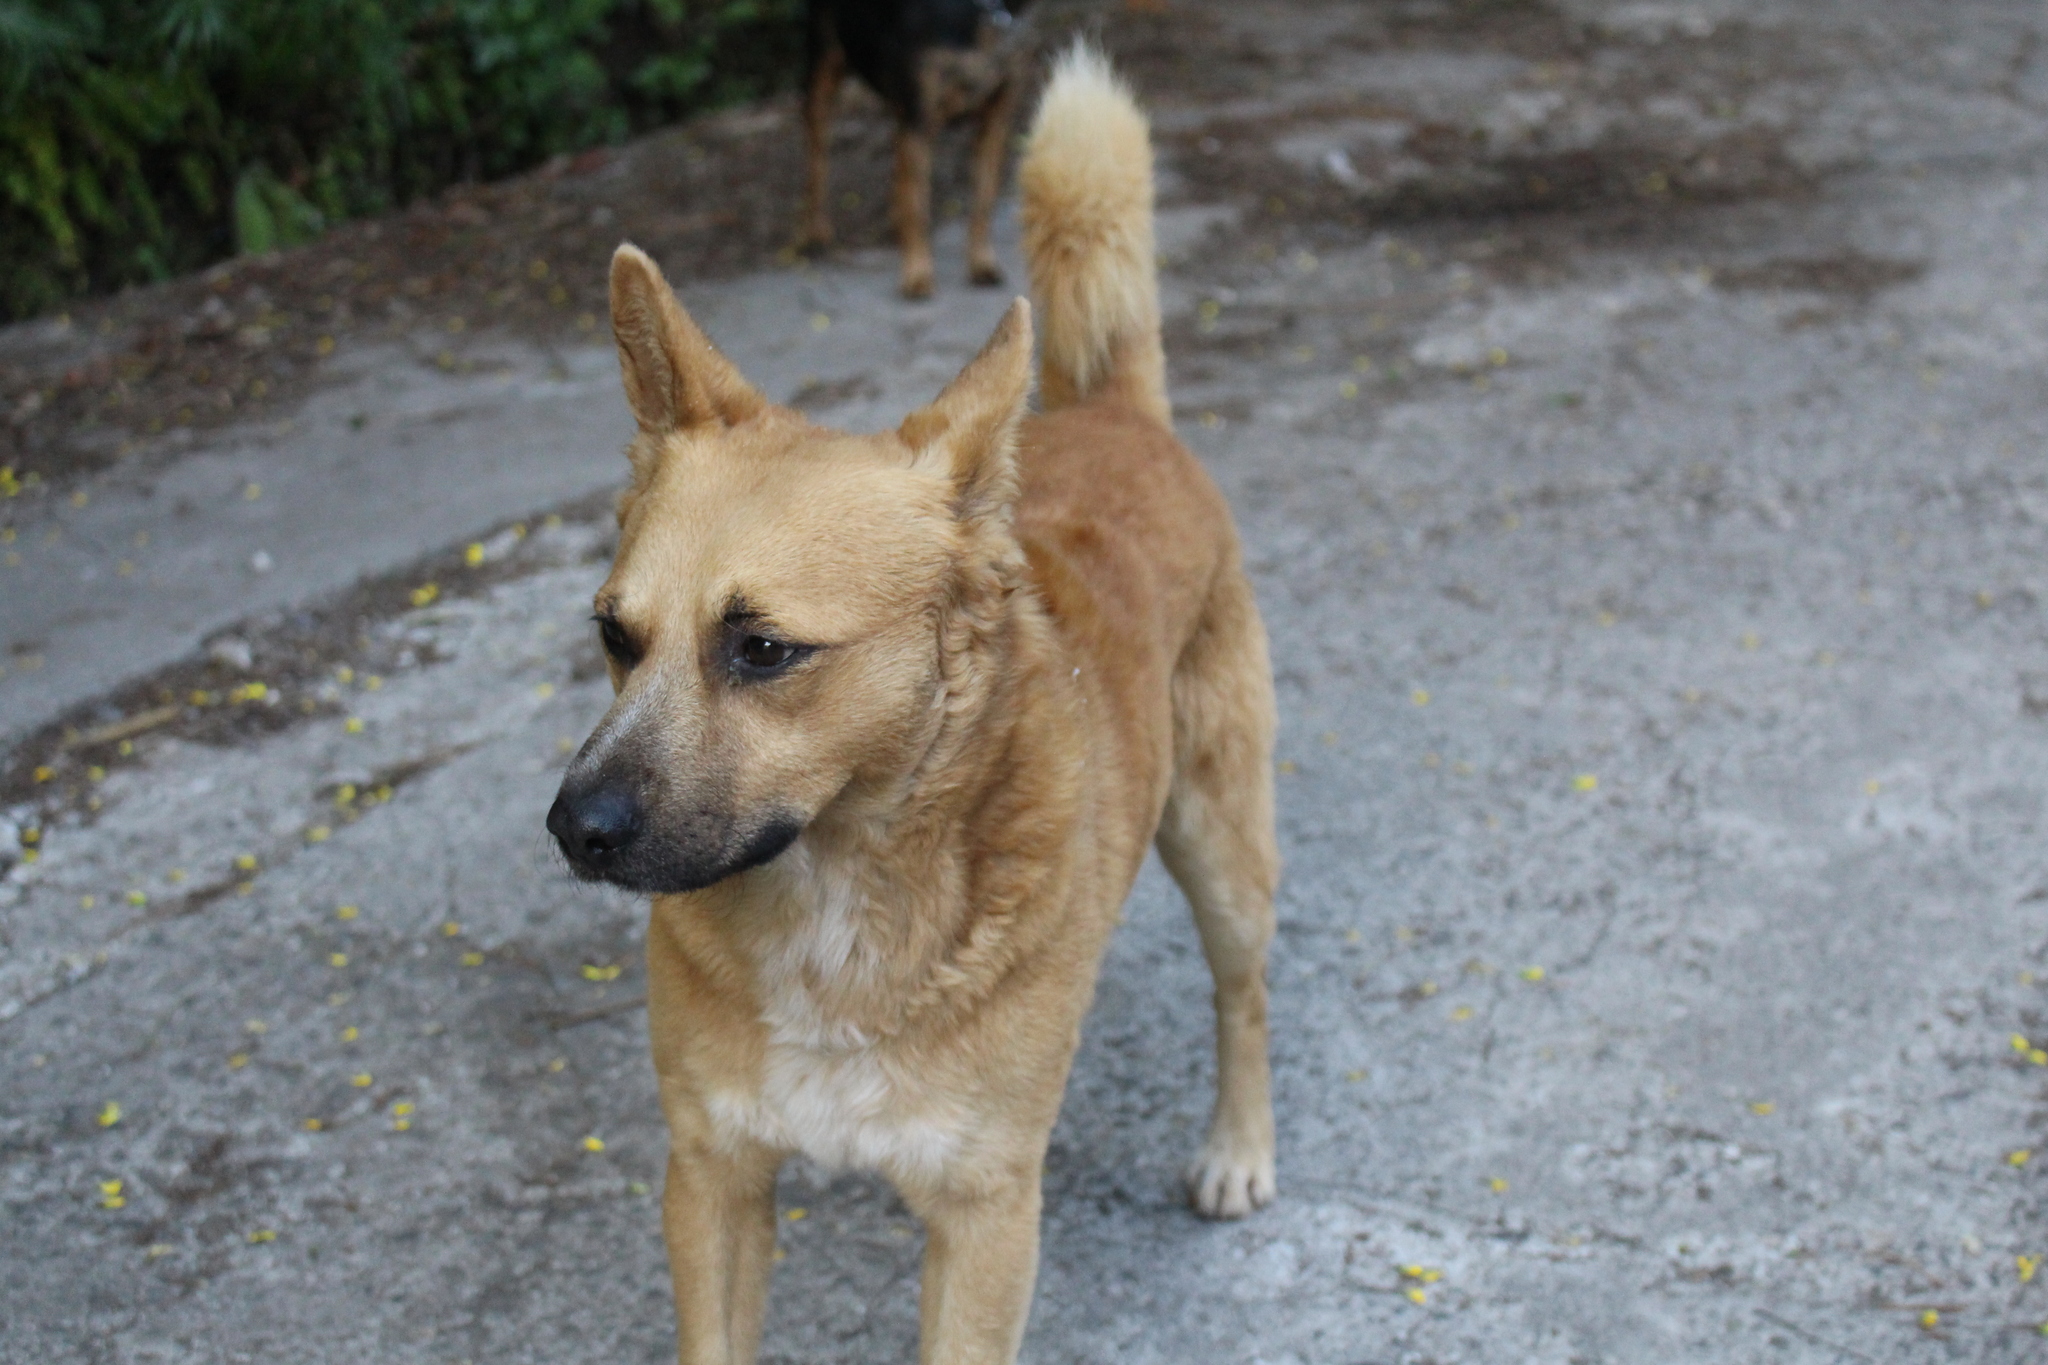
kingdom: Animalia
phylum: Chordata
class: Mammalia
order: Carnivora
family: Canidae
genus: Canis
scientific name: Canis lupus
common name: Gray wolf
